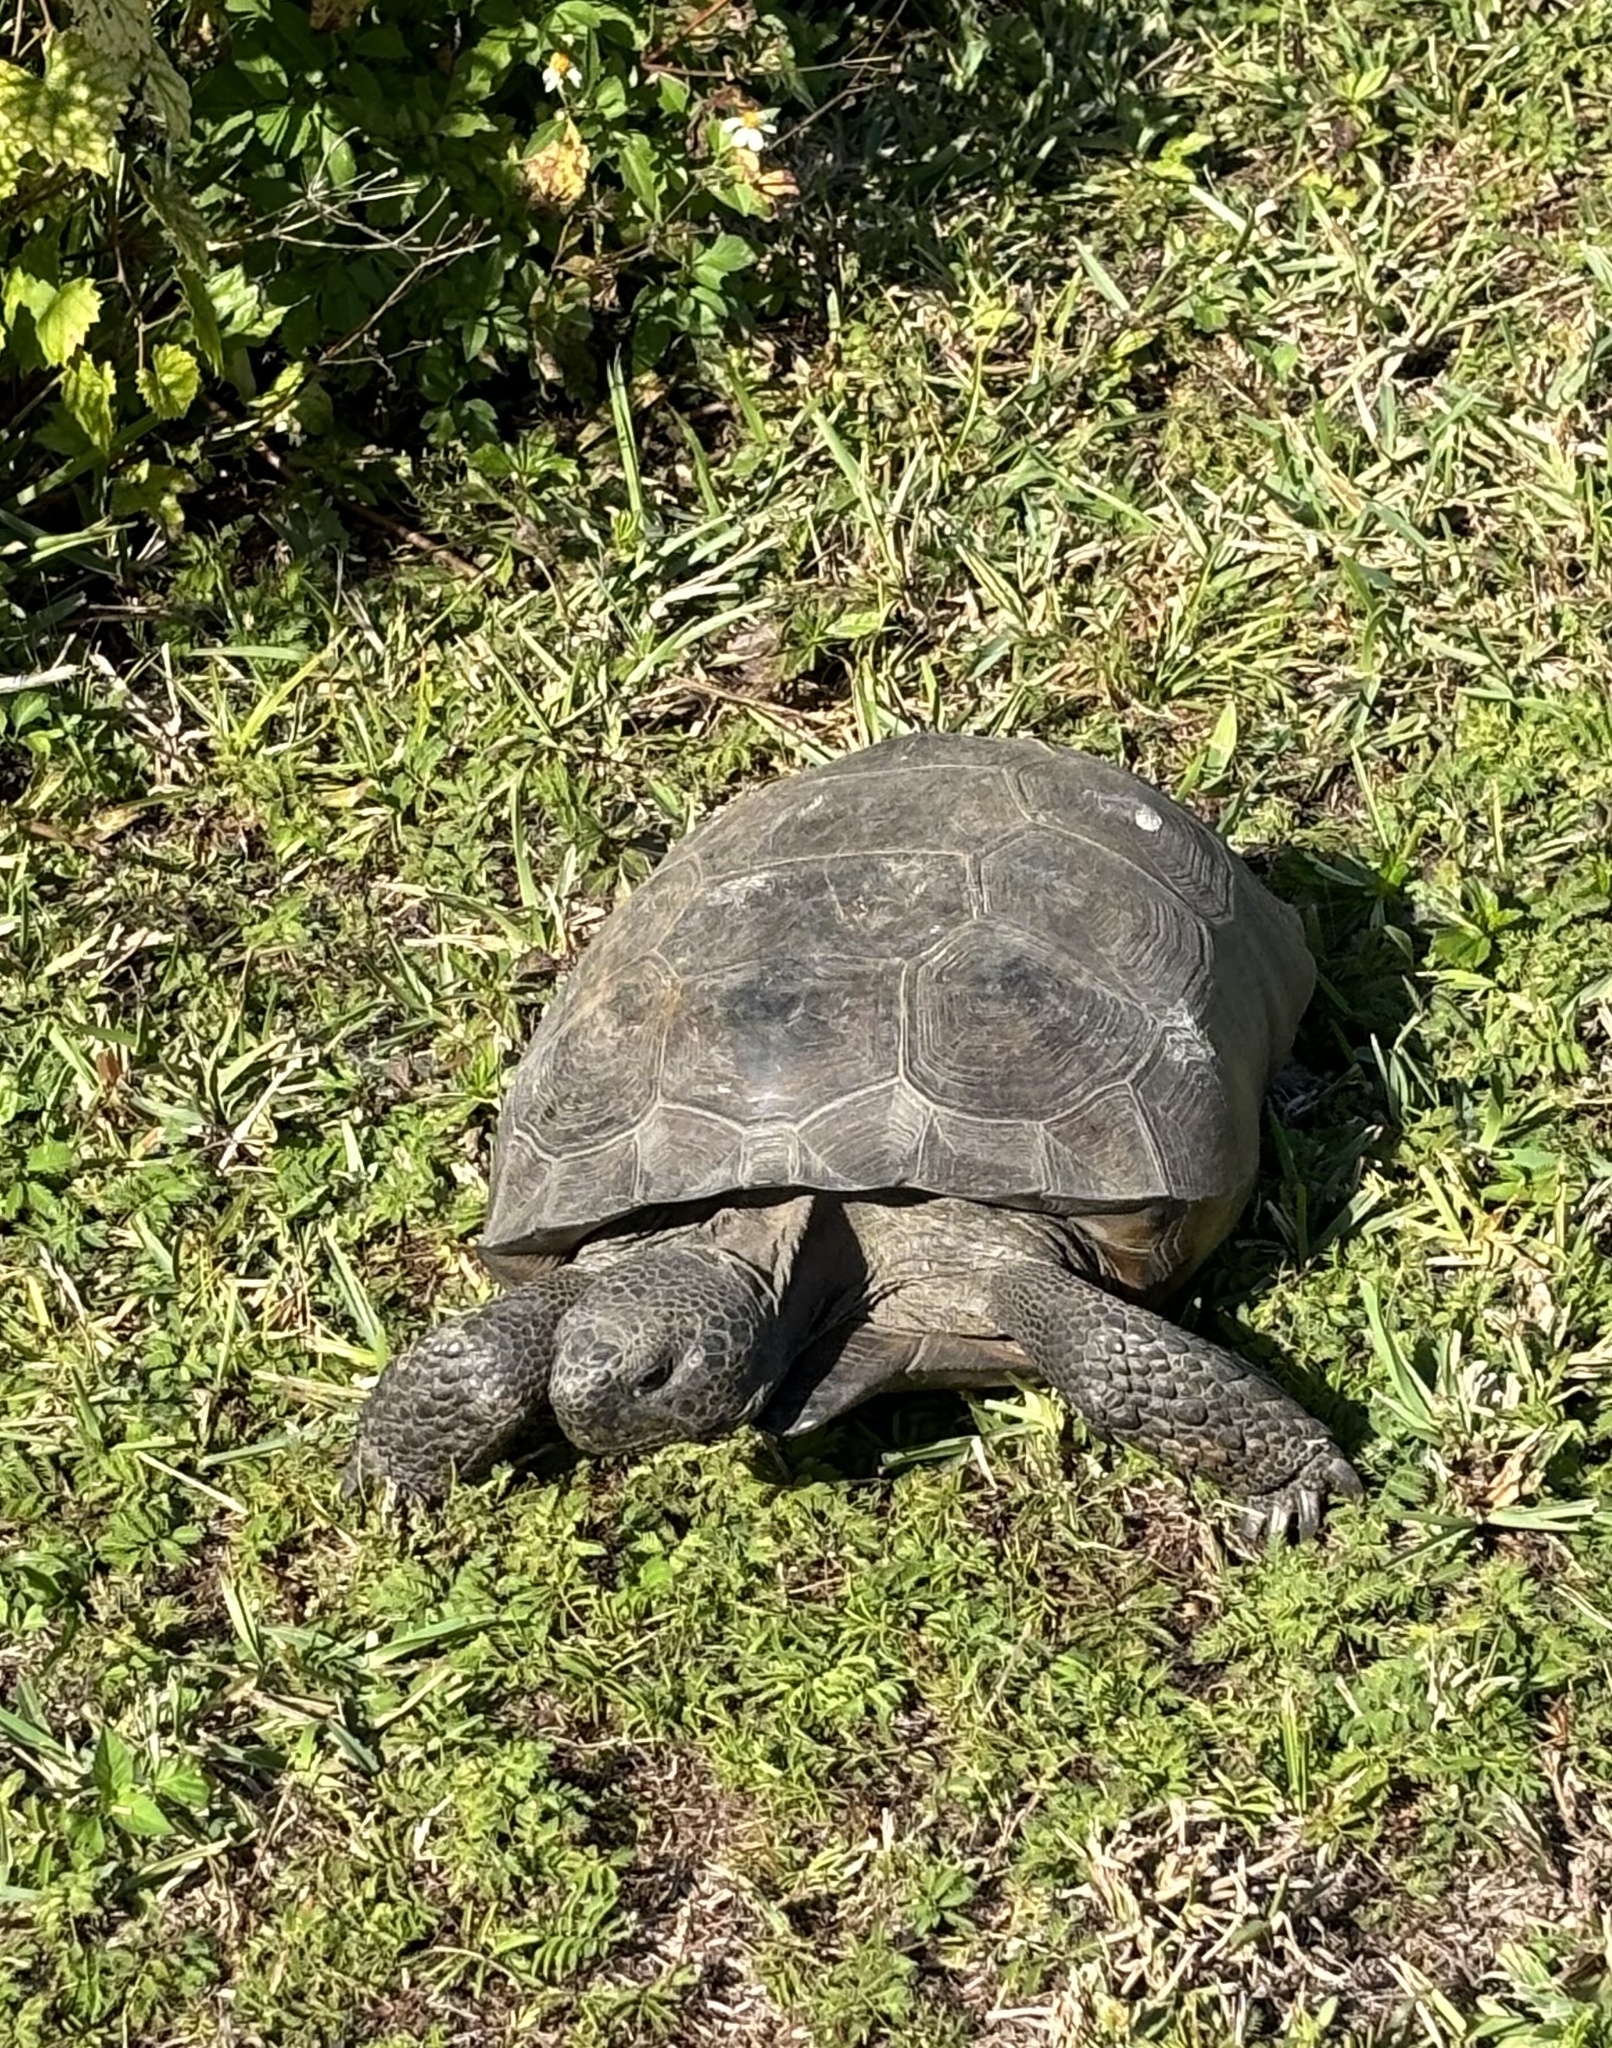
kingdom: Animalia
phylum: Chordata
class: Testudines
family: Testudinidae
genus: Gopherus
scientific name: Gopherus polyphemus
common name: Florida gopher tortoise
